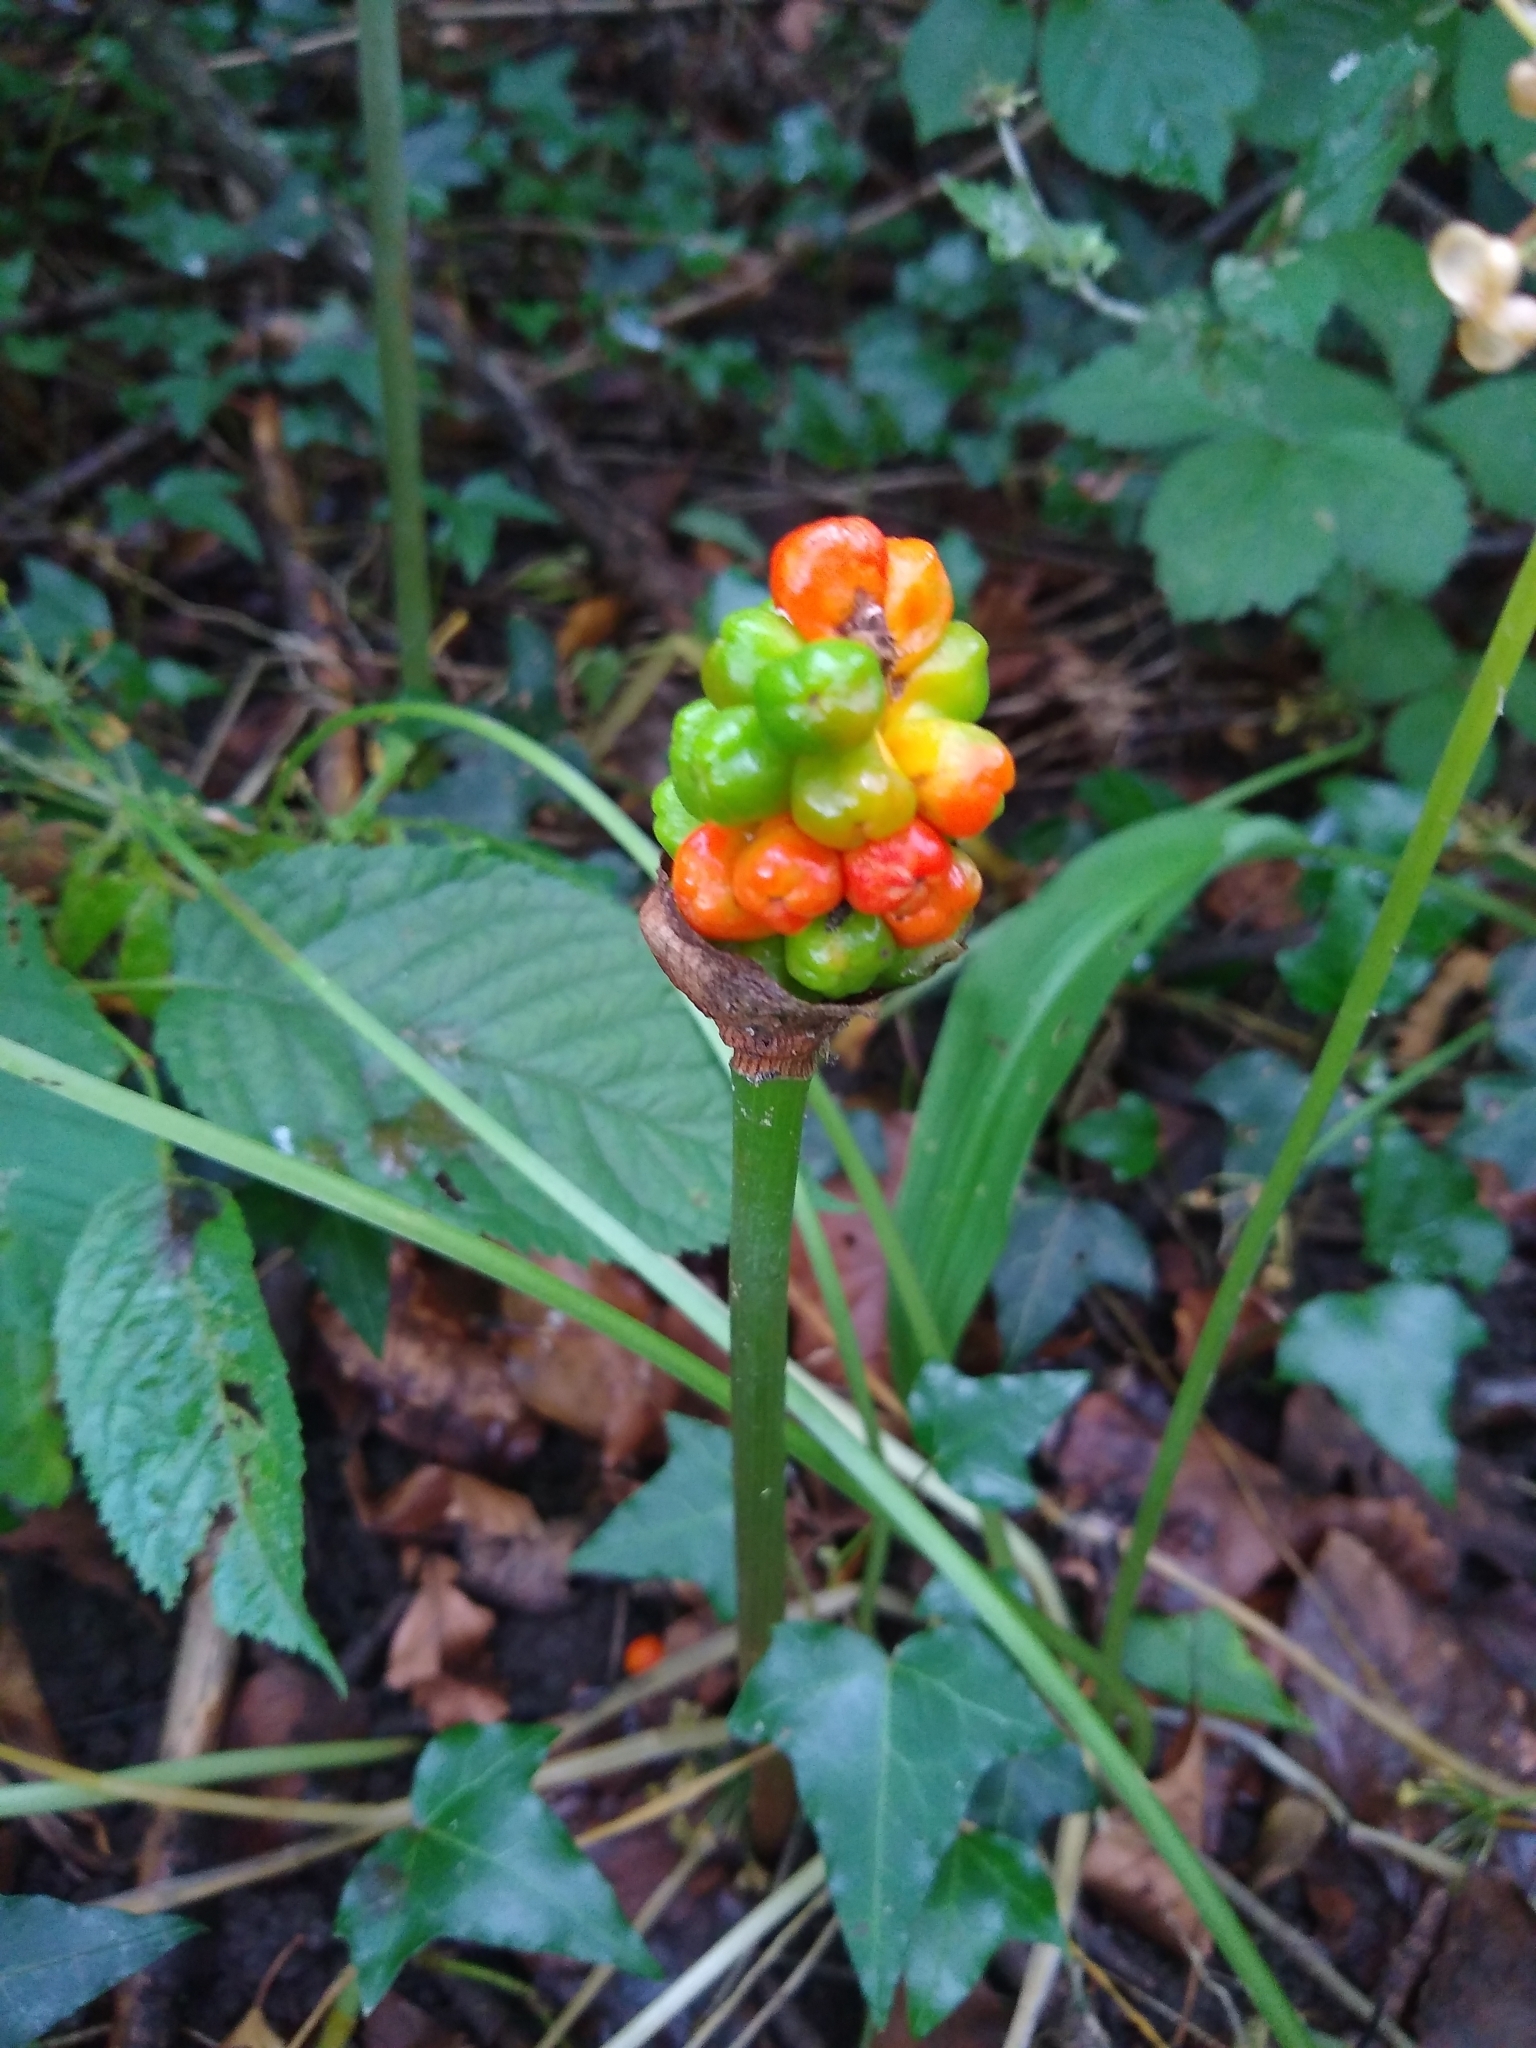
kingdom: Plantae
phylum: Tracheophyta
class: Liliopsida
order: Alismatales
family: Araceae
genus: Arum
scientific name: Arum maculatum
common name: Lords-and-ladies
